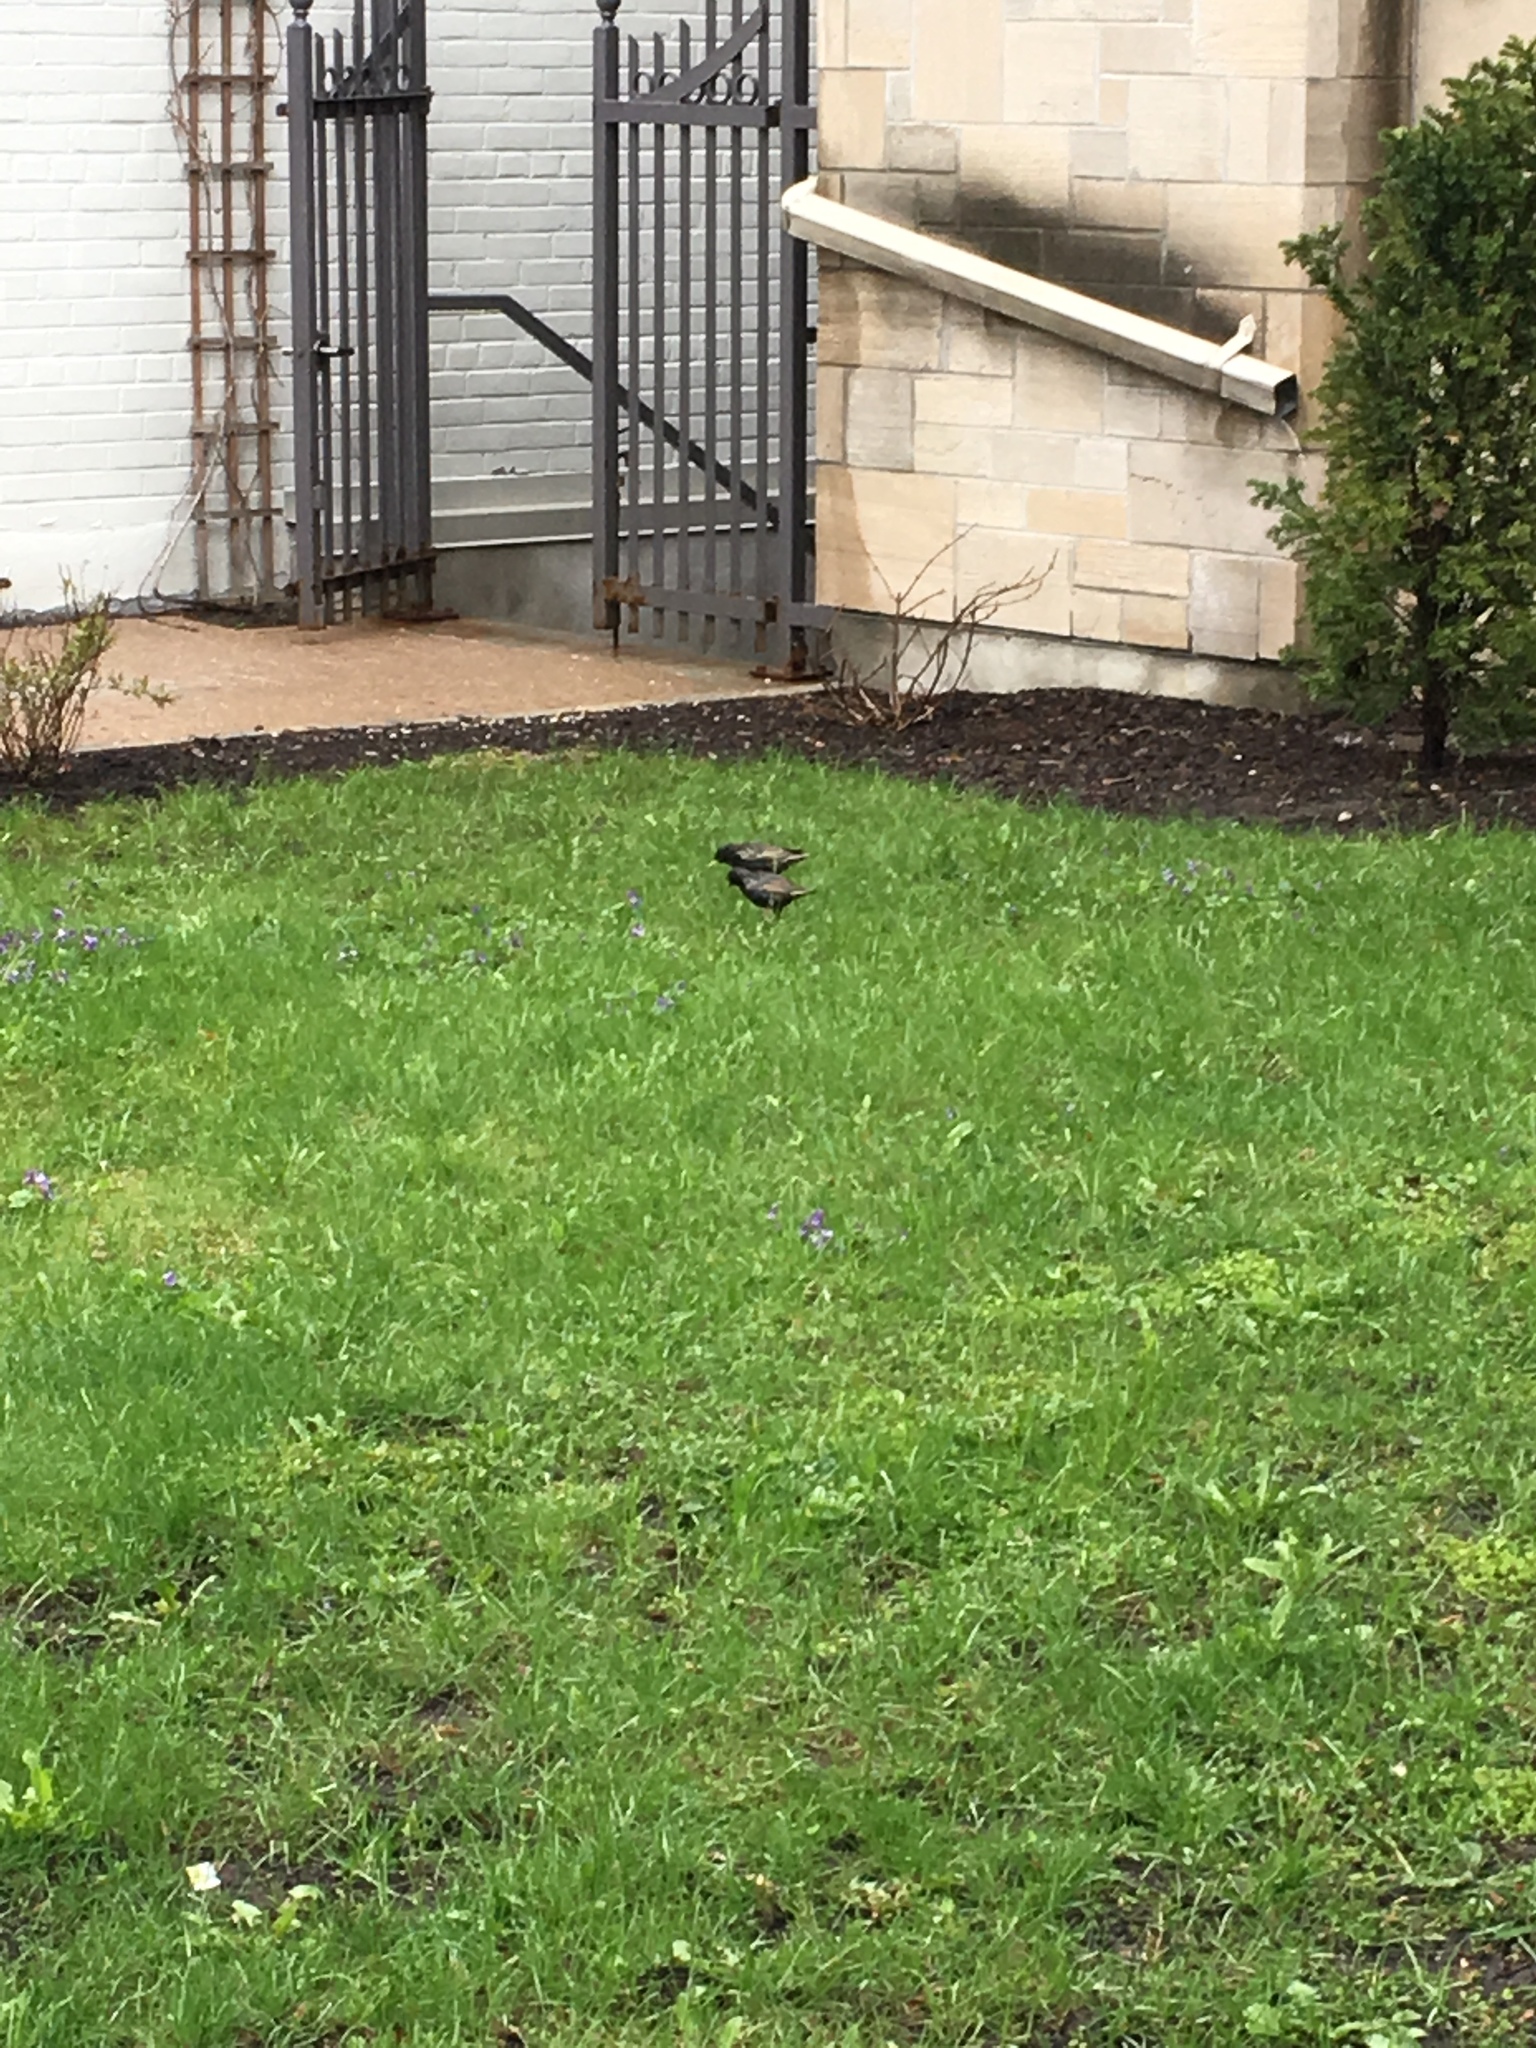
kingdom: Animalia
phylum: Chordata
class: Aves
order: Passeriformes
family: Sturnidae
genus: Sturnus
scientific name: Sturnus vulgaris
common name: Common starling
